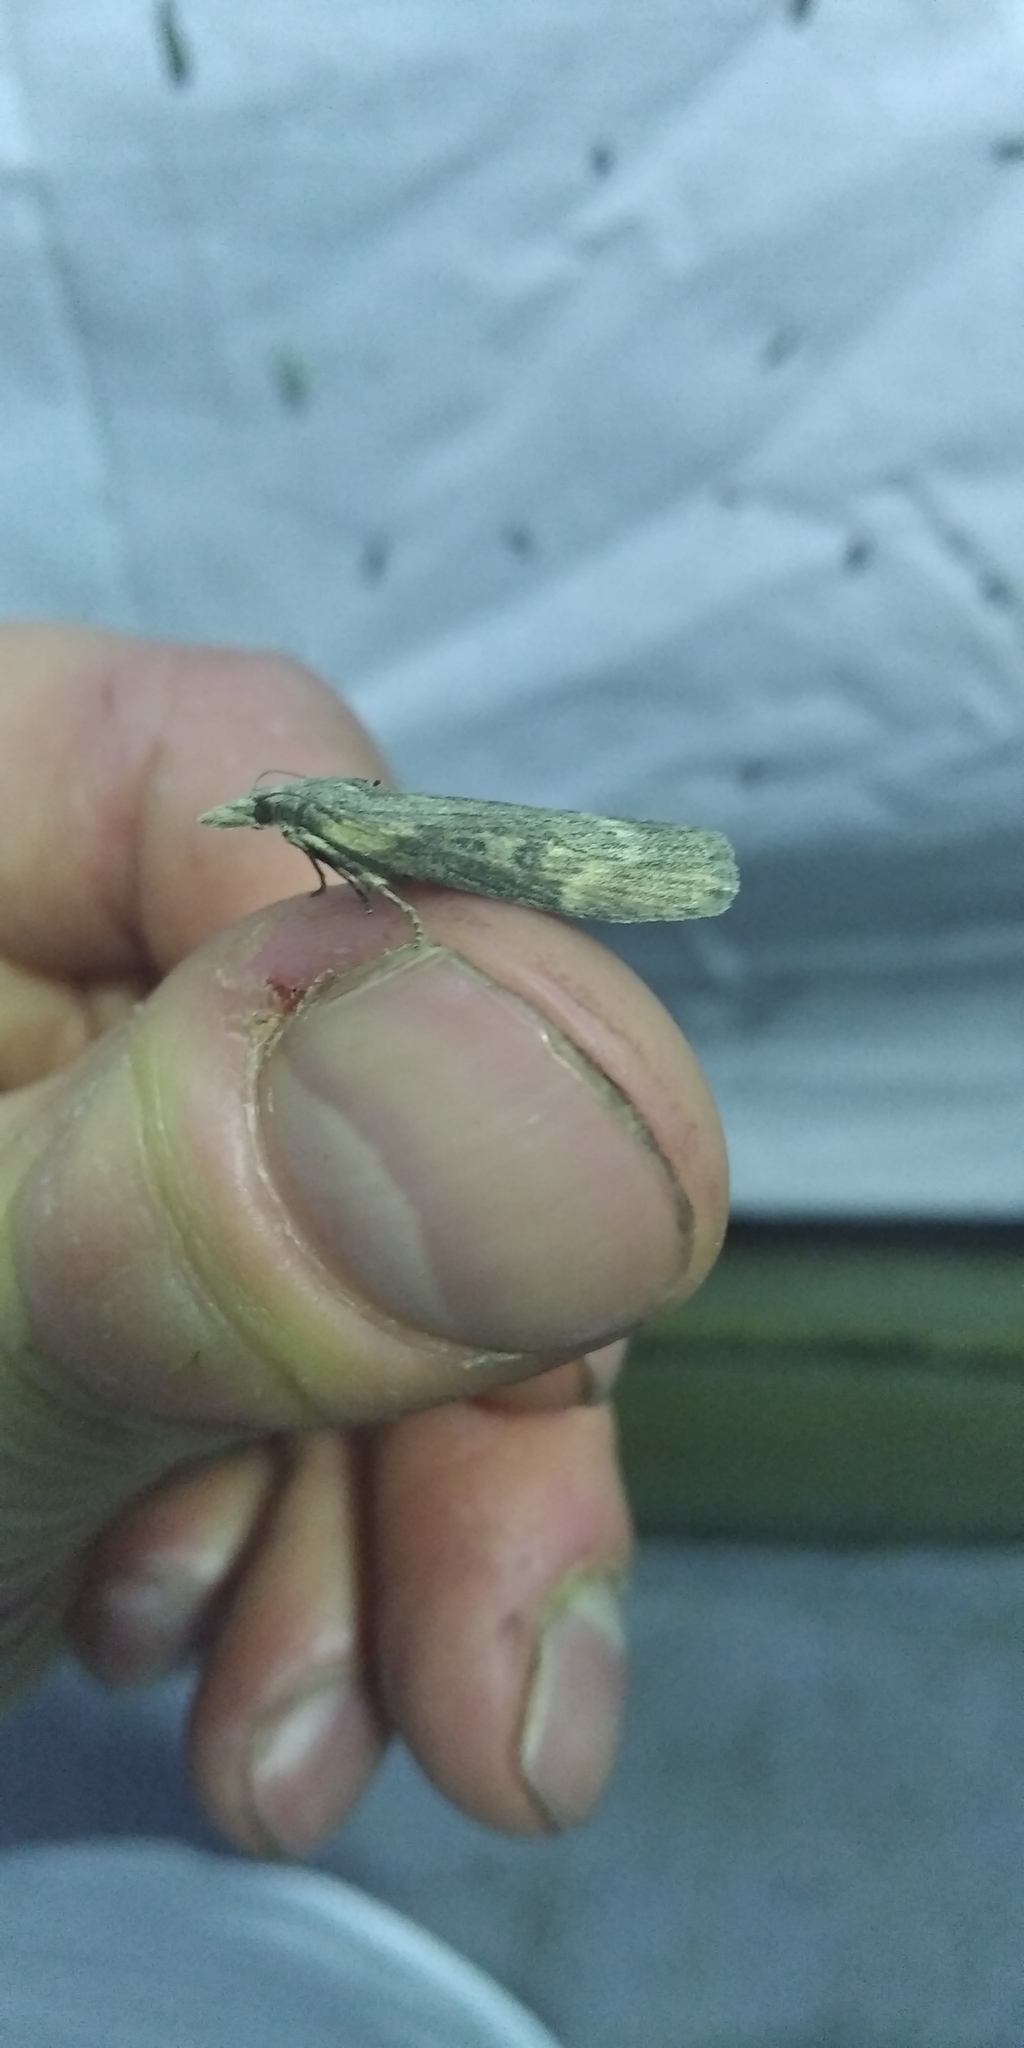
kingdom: Animalia
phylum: Arthropoda
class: Insecta
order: Lepidoptera
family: Pyralidae
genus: Lamoria
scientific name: Lamoria anella
